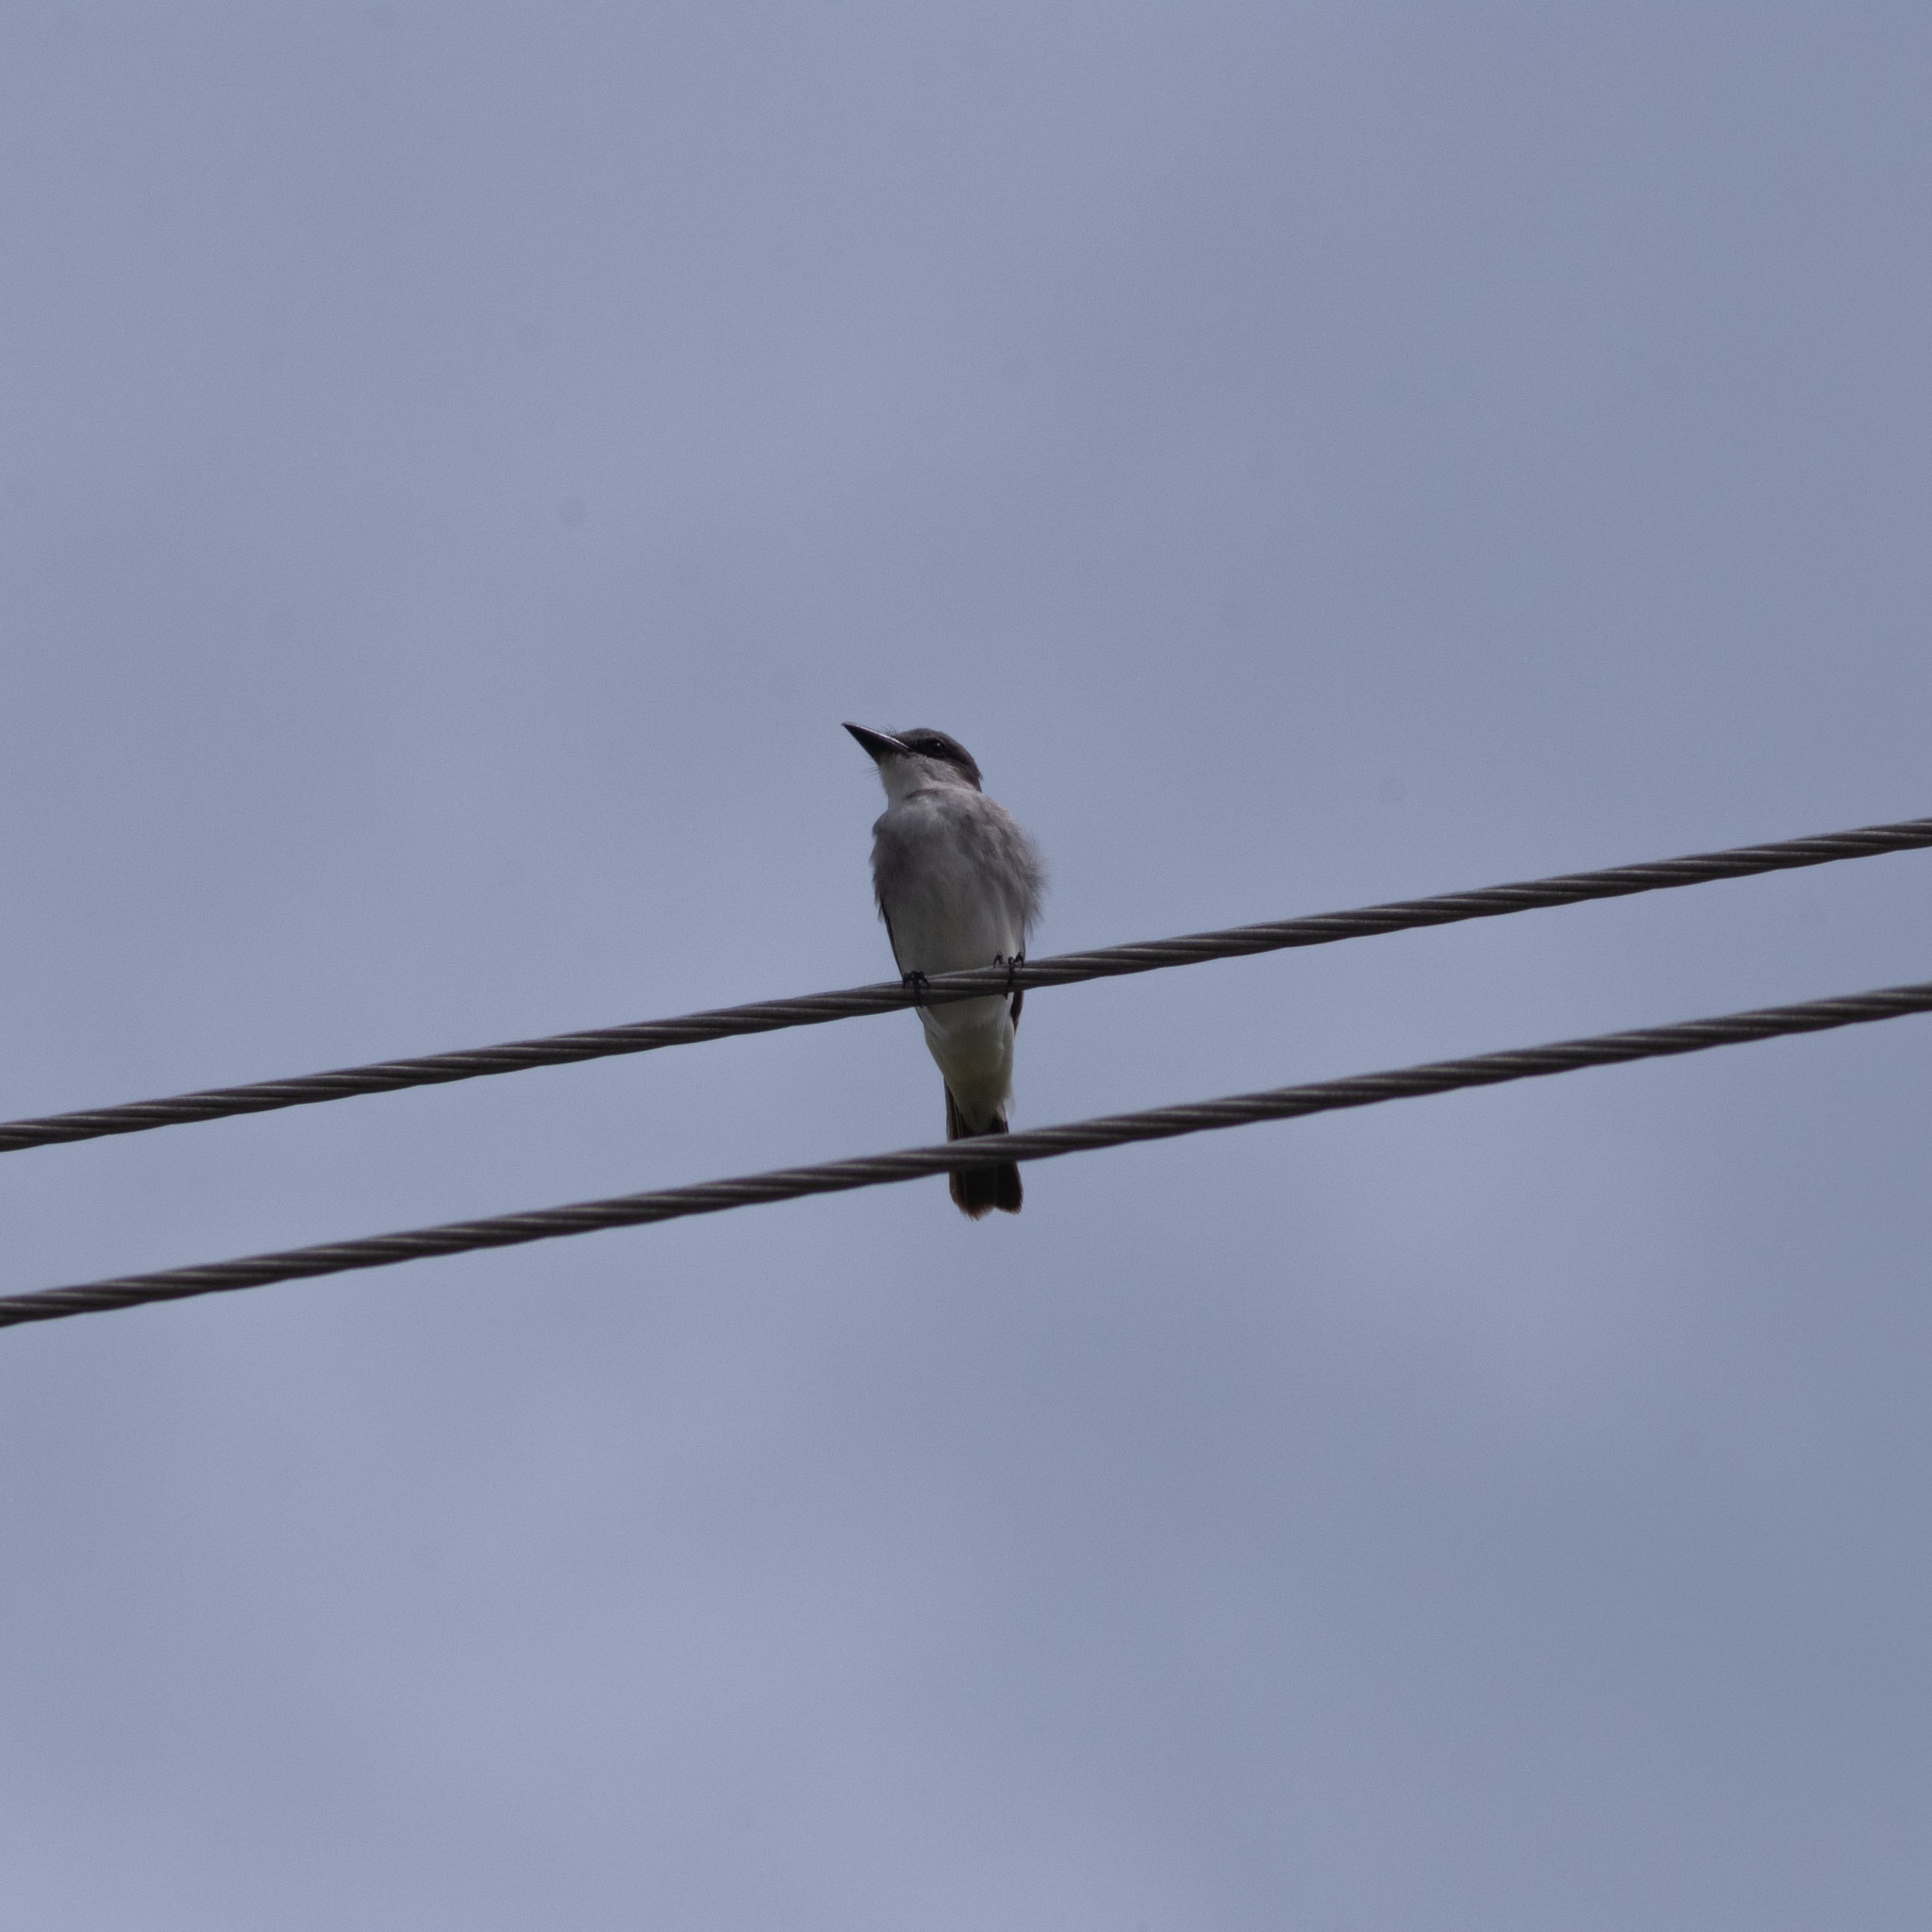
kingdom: Animalia
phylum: Chordata
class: Aves
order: Passeriformes
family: Tyrannidae
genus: Tyrannus
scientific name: Tyrannus dominicensis
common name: Gray kingbird
